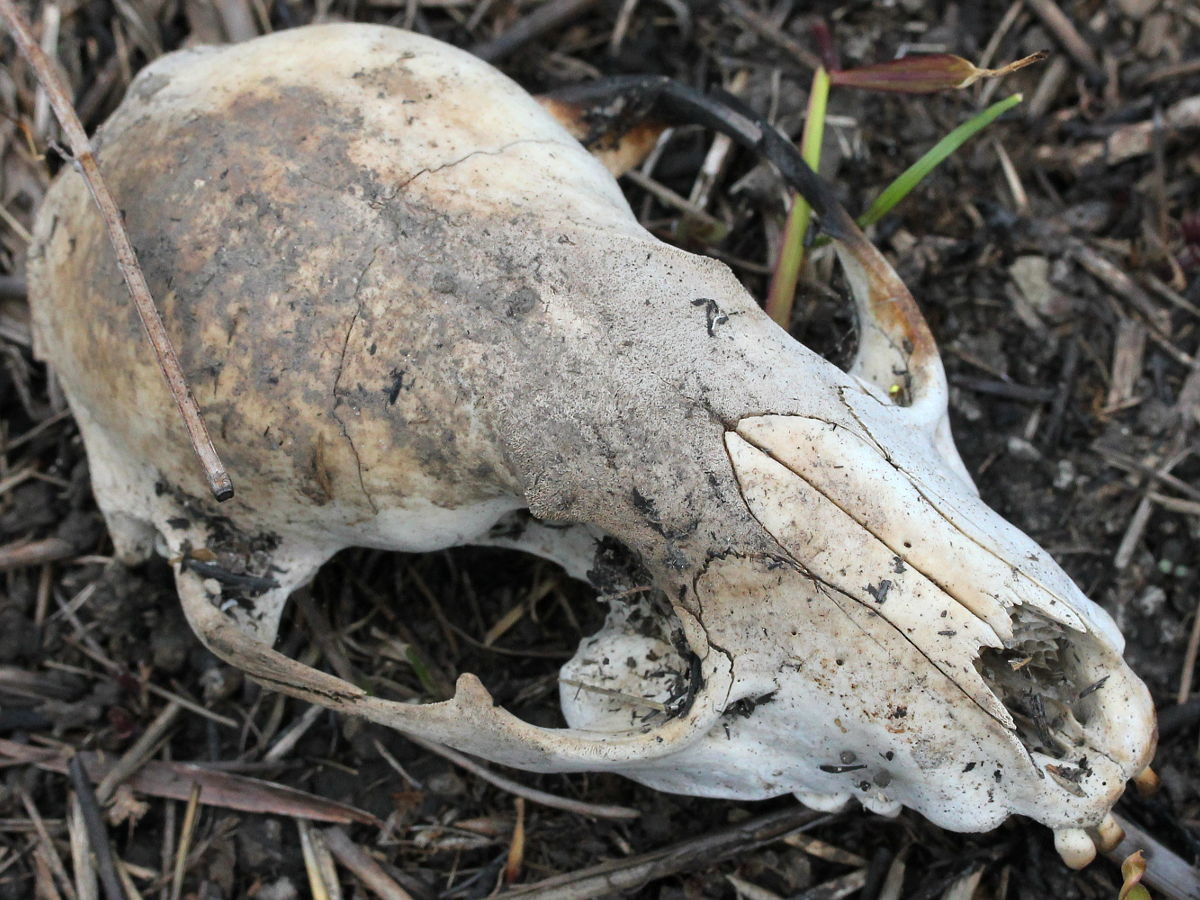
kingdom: Animalia
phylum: Chordata
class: Mammalia
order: Carnivora
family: Procyonidae
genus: Procyon
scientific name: Procyon lotor
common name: Raccoon
